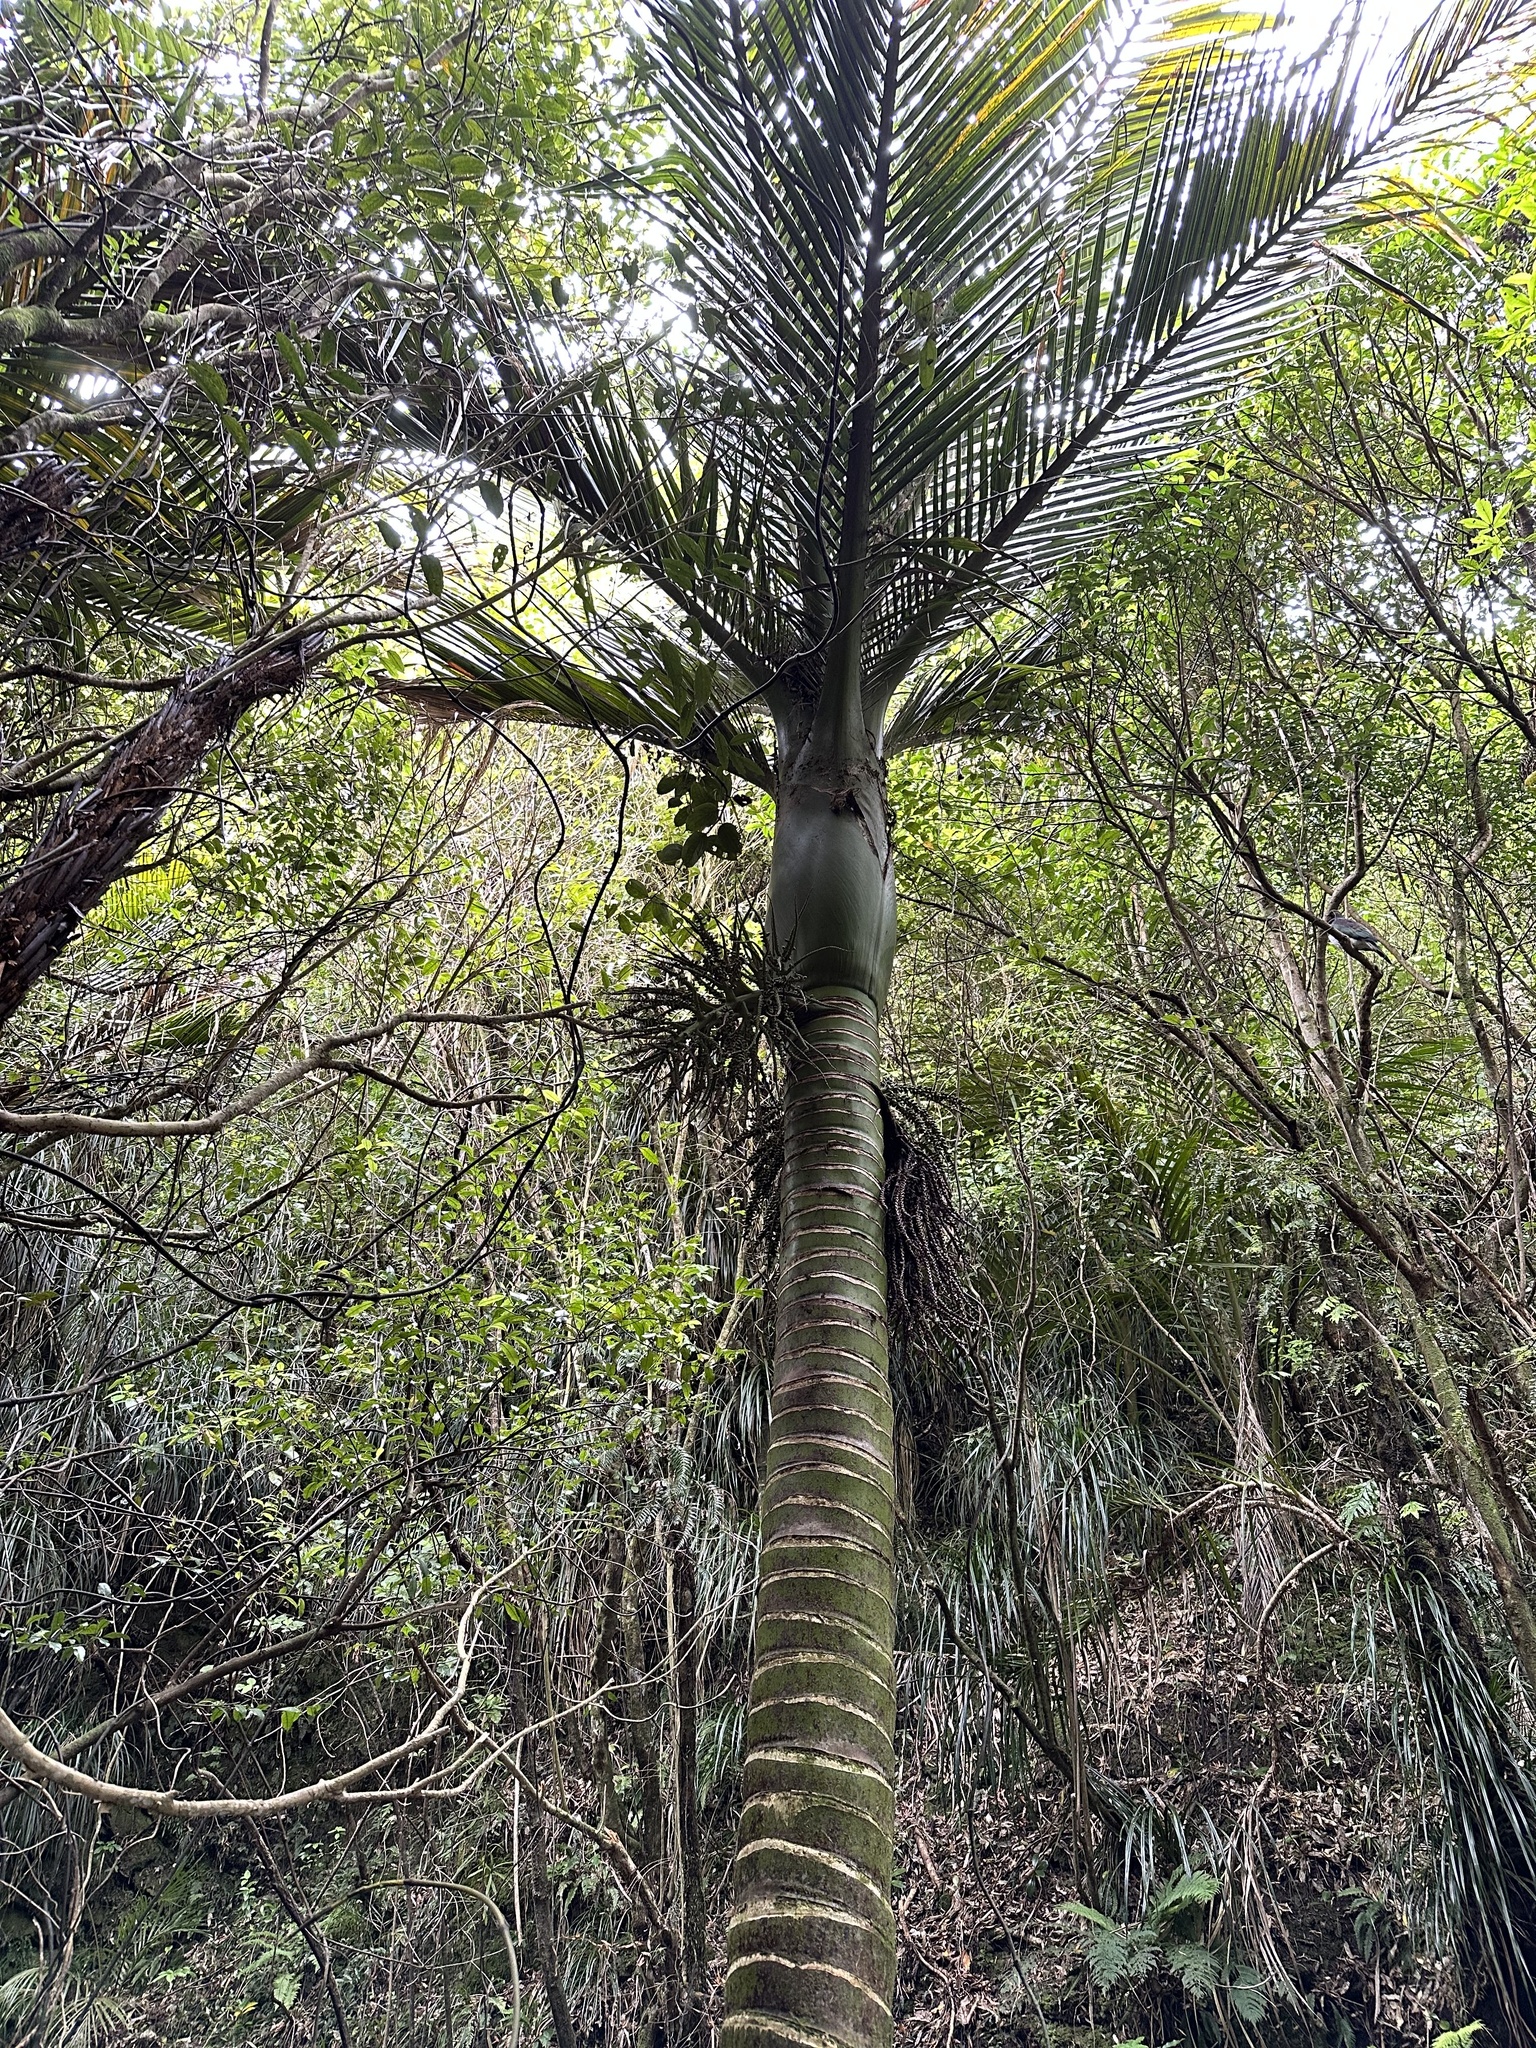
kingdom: Plantae
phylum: Tracheophyta
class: Liliopsida
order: Arecales
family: Arecaceae
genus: Rhopalostylis
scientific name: Rhopalostylis sapida
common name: Feather-duster palm
